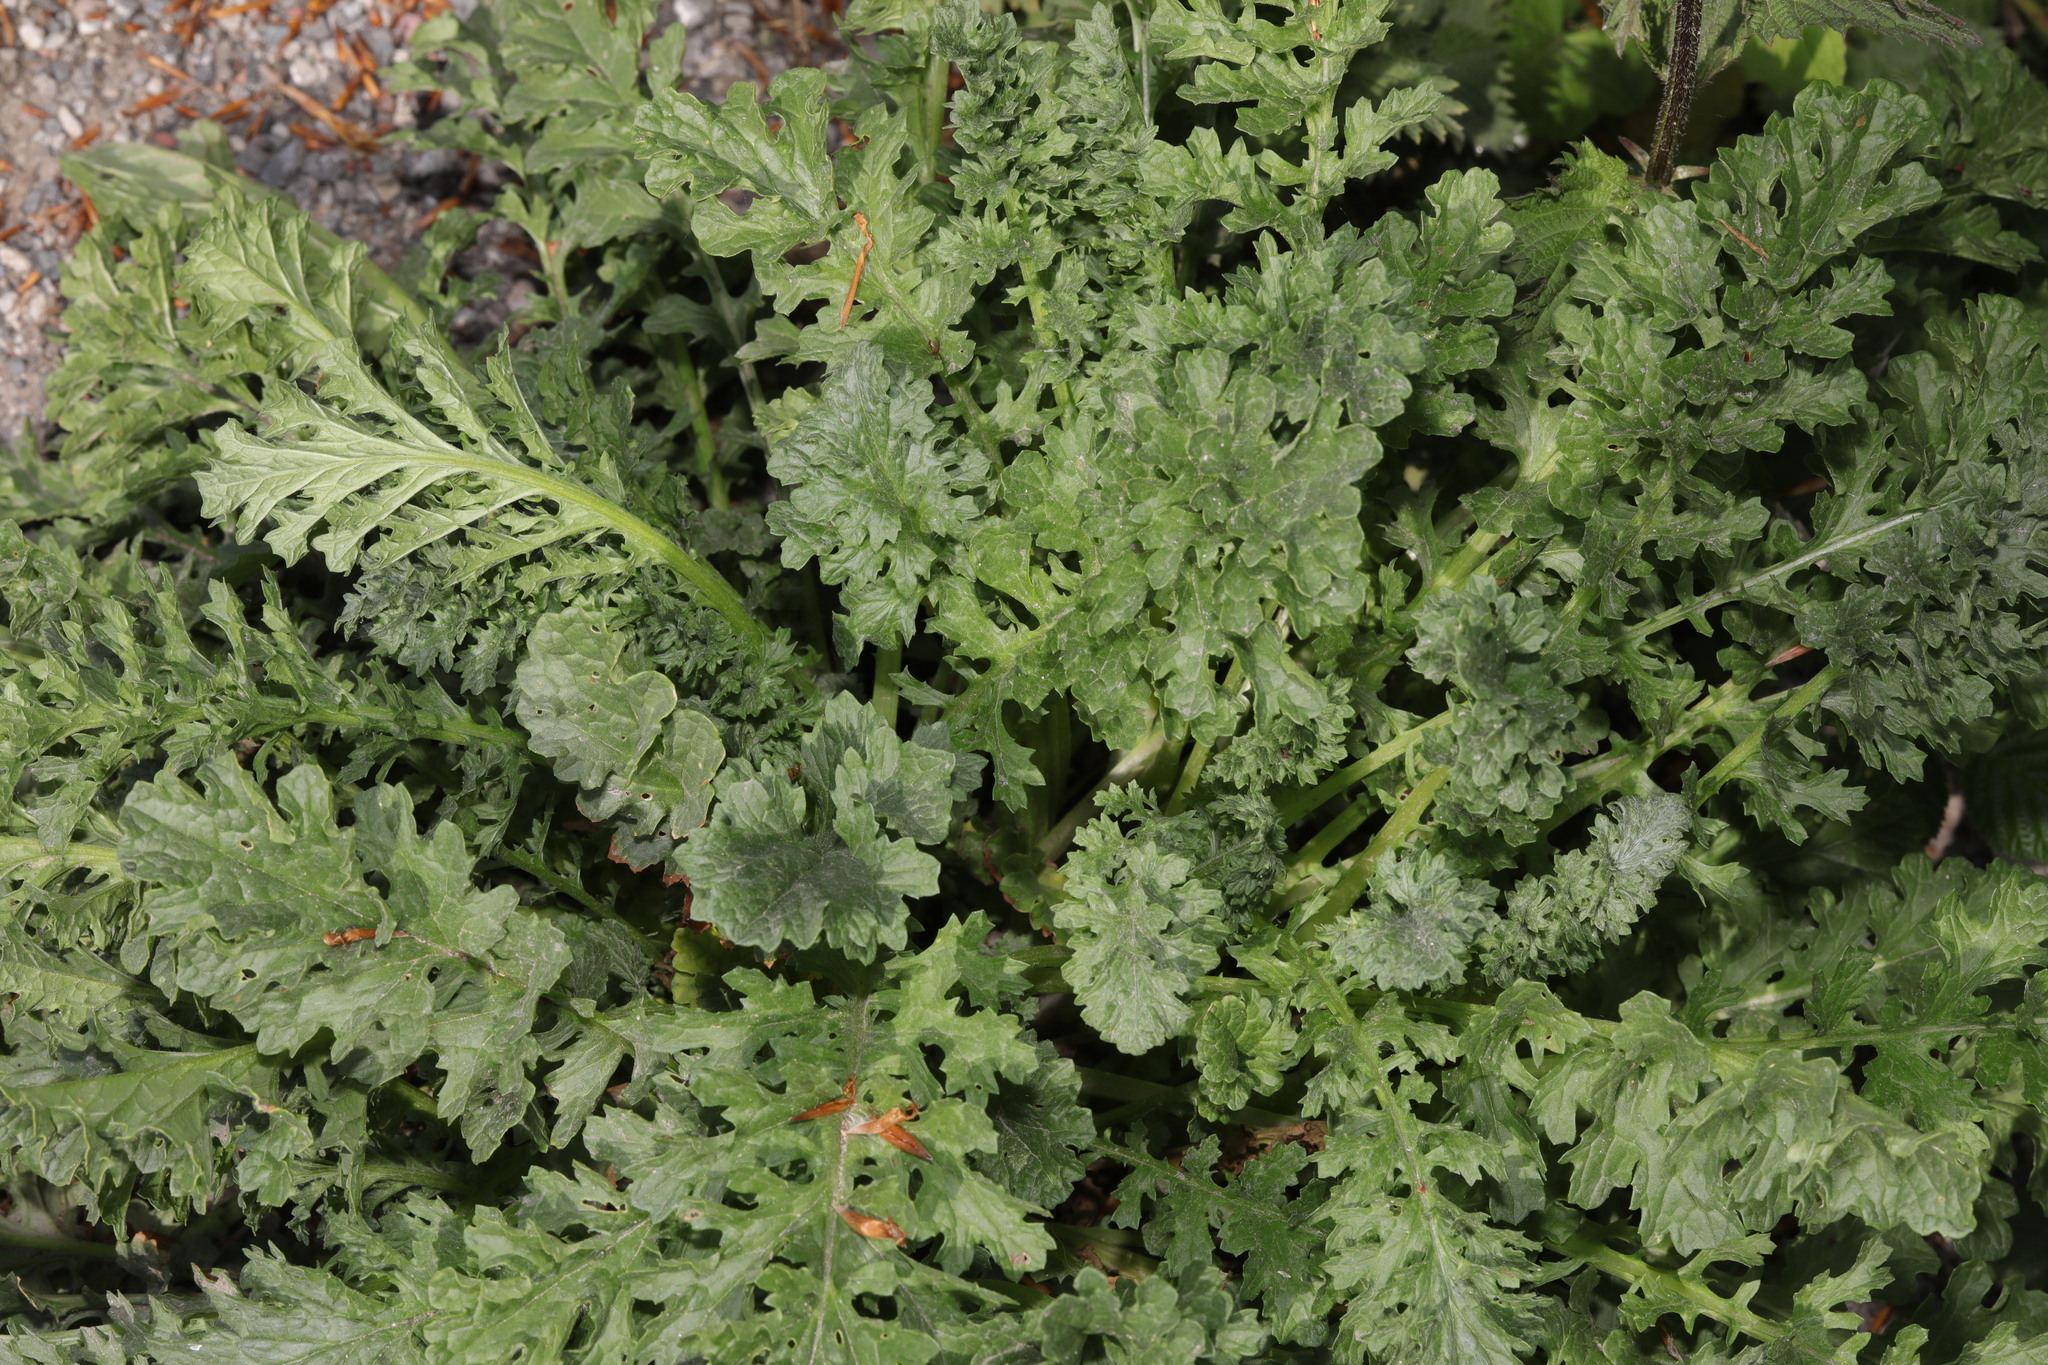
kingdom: Plantae
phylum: Tracheophyta
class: Magnoliopsida
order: Asterales
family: Asteraceae
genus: Jacobaea
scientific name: Jacobaea vulgaris
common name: Stinking willie
